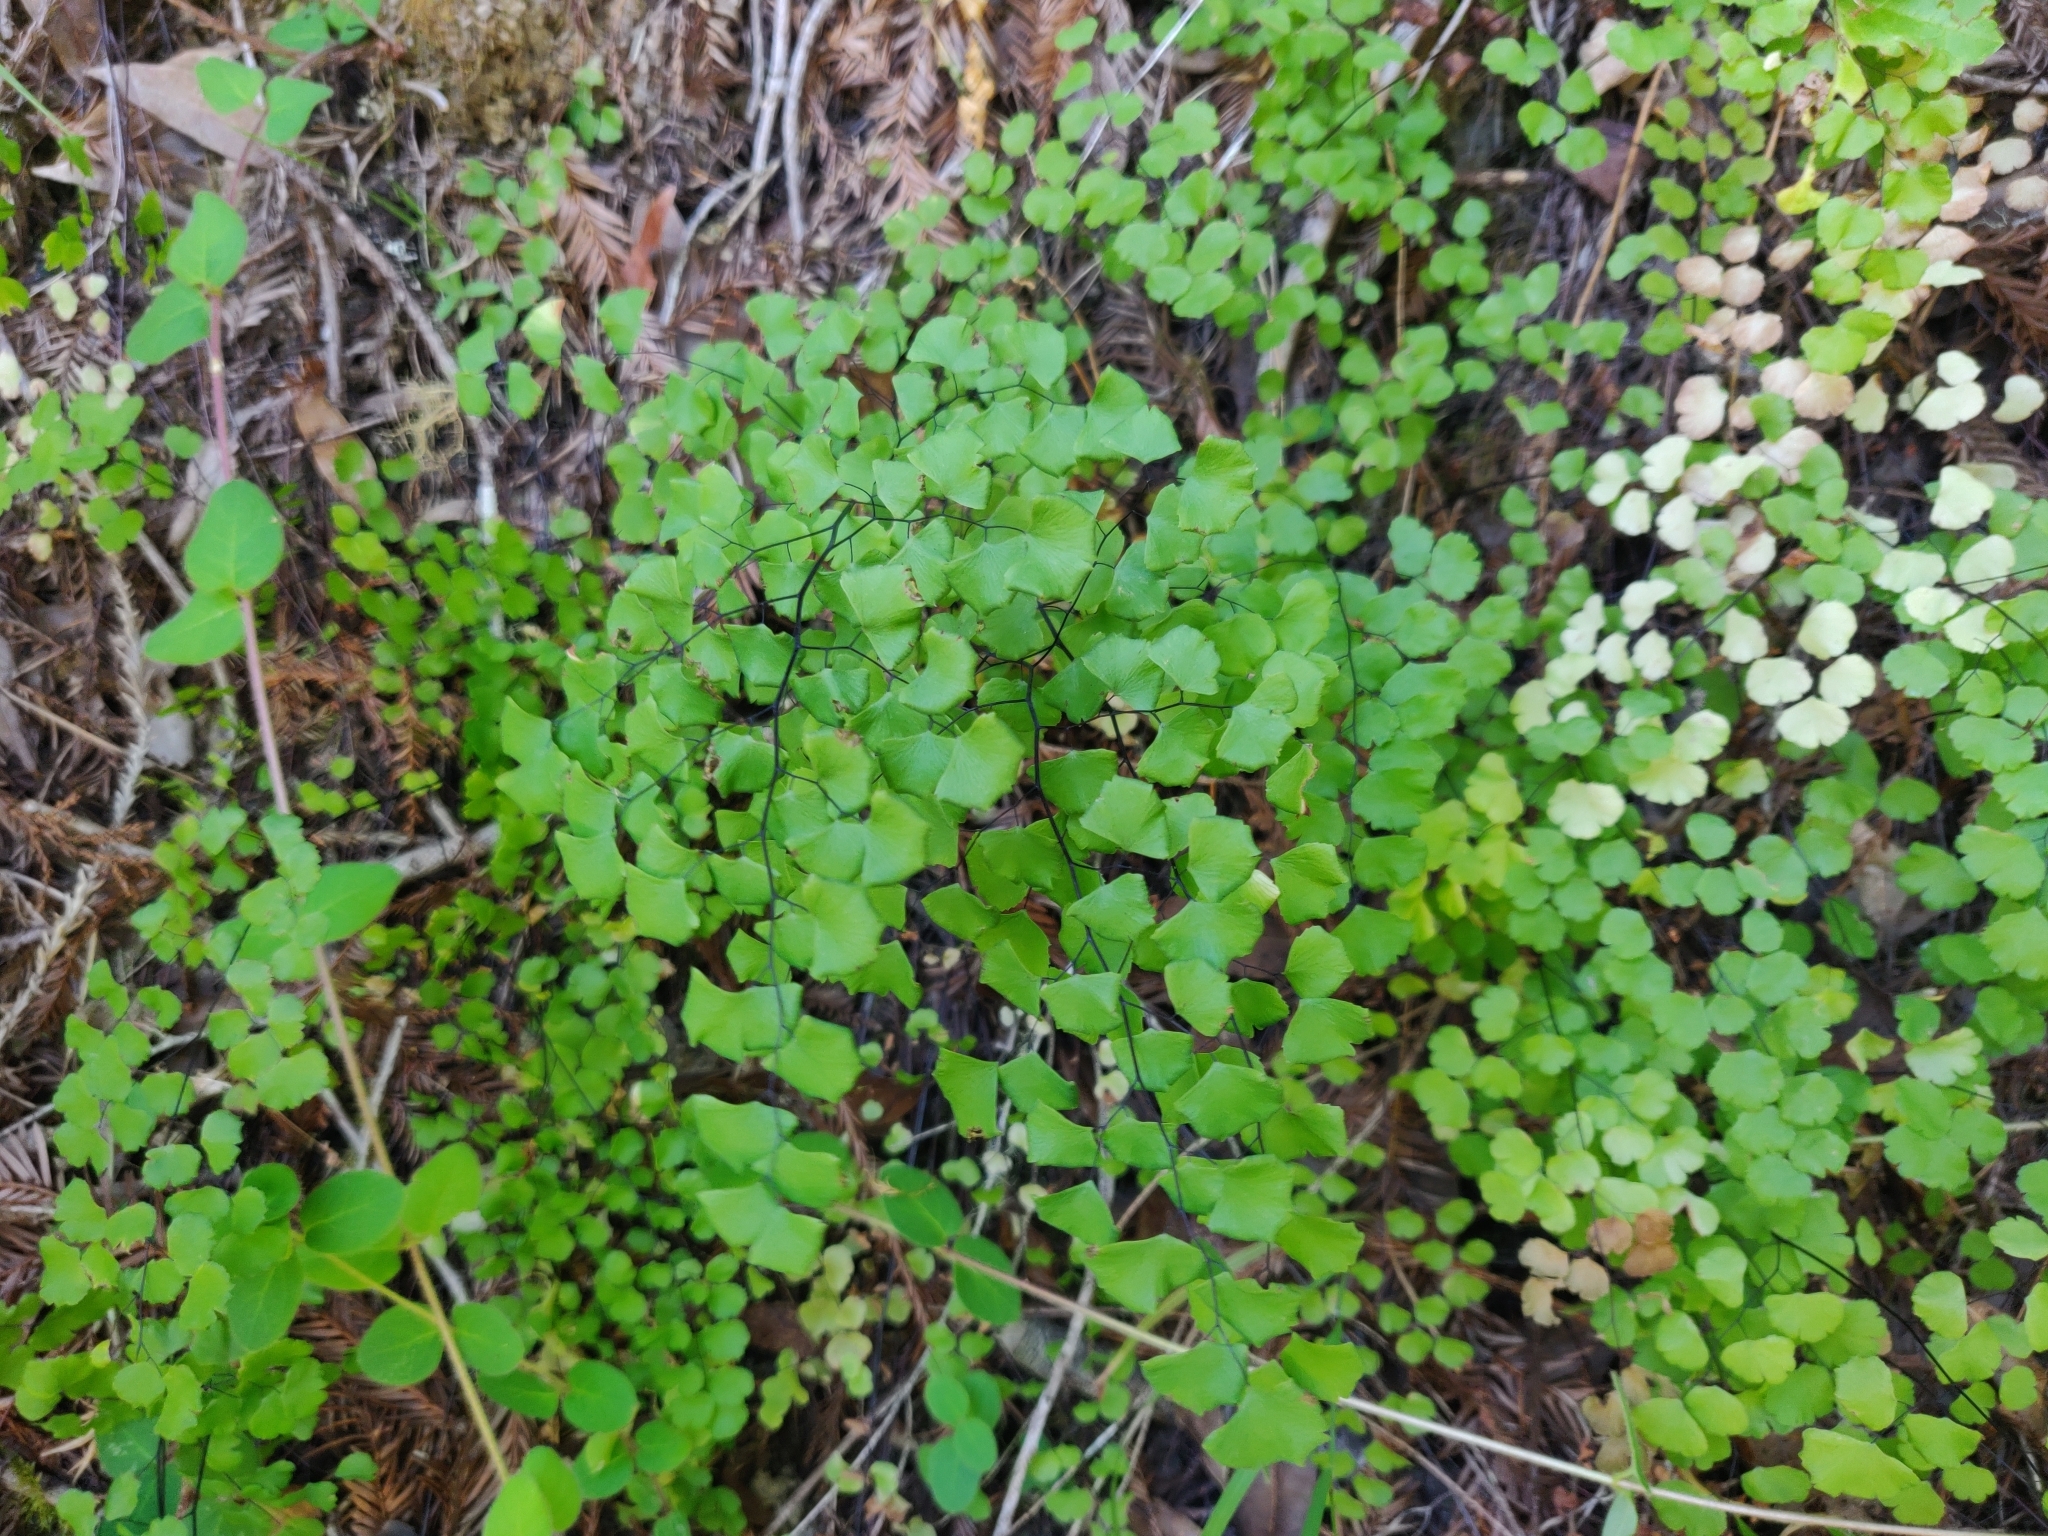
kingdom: Plantae
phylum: Tracheophyta
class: Polypodiopsida
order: Polypodiales
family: Pteridaceae
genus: Adiantum
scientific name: Adiantum jordanii
